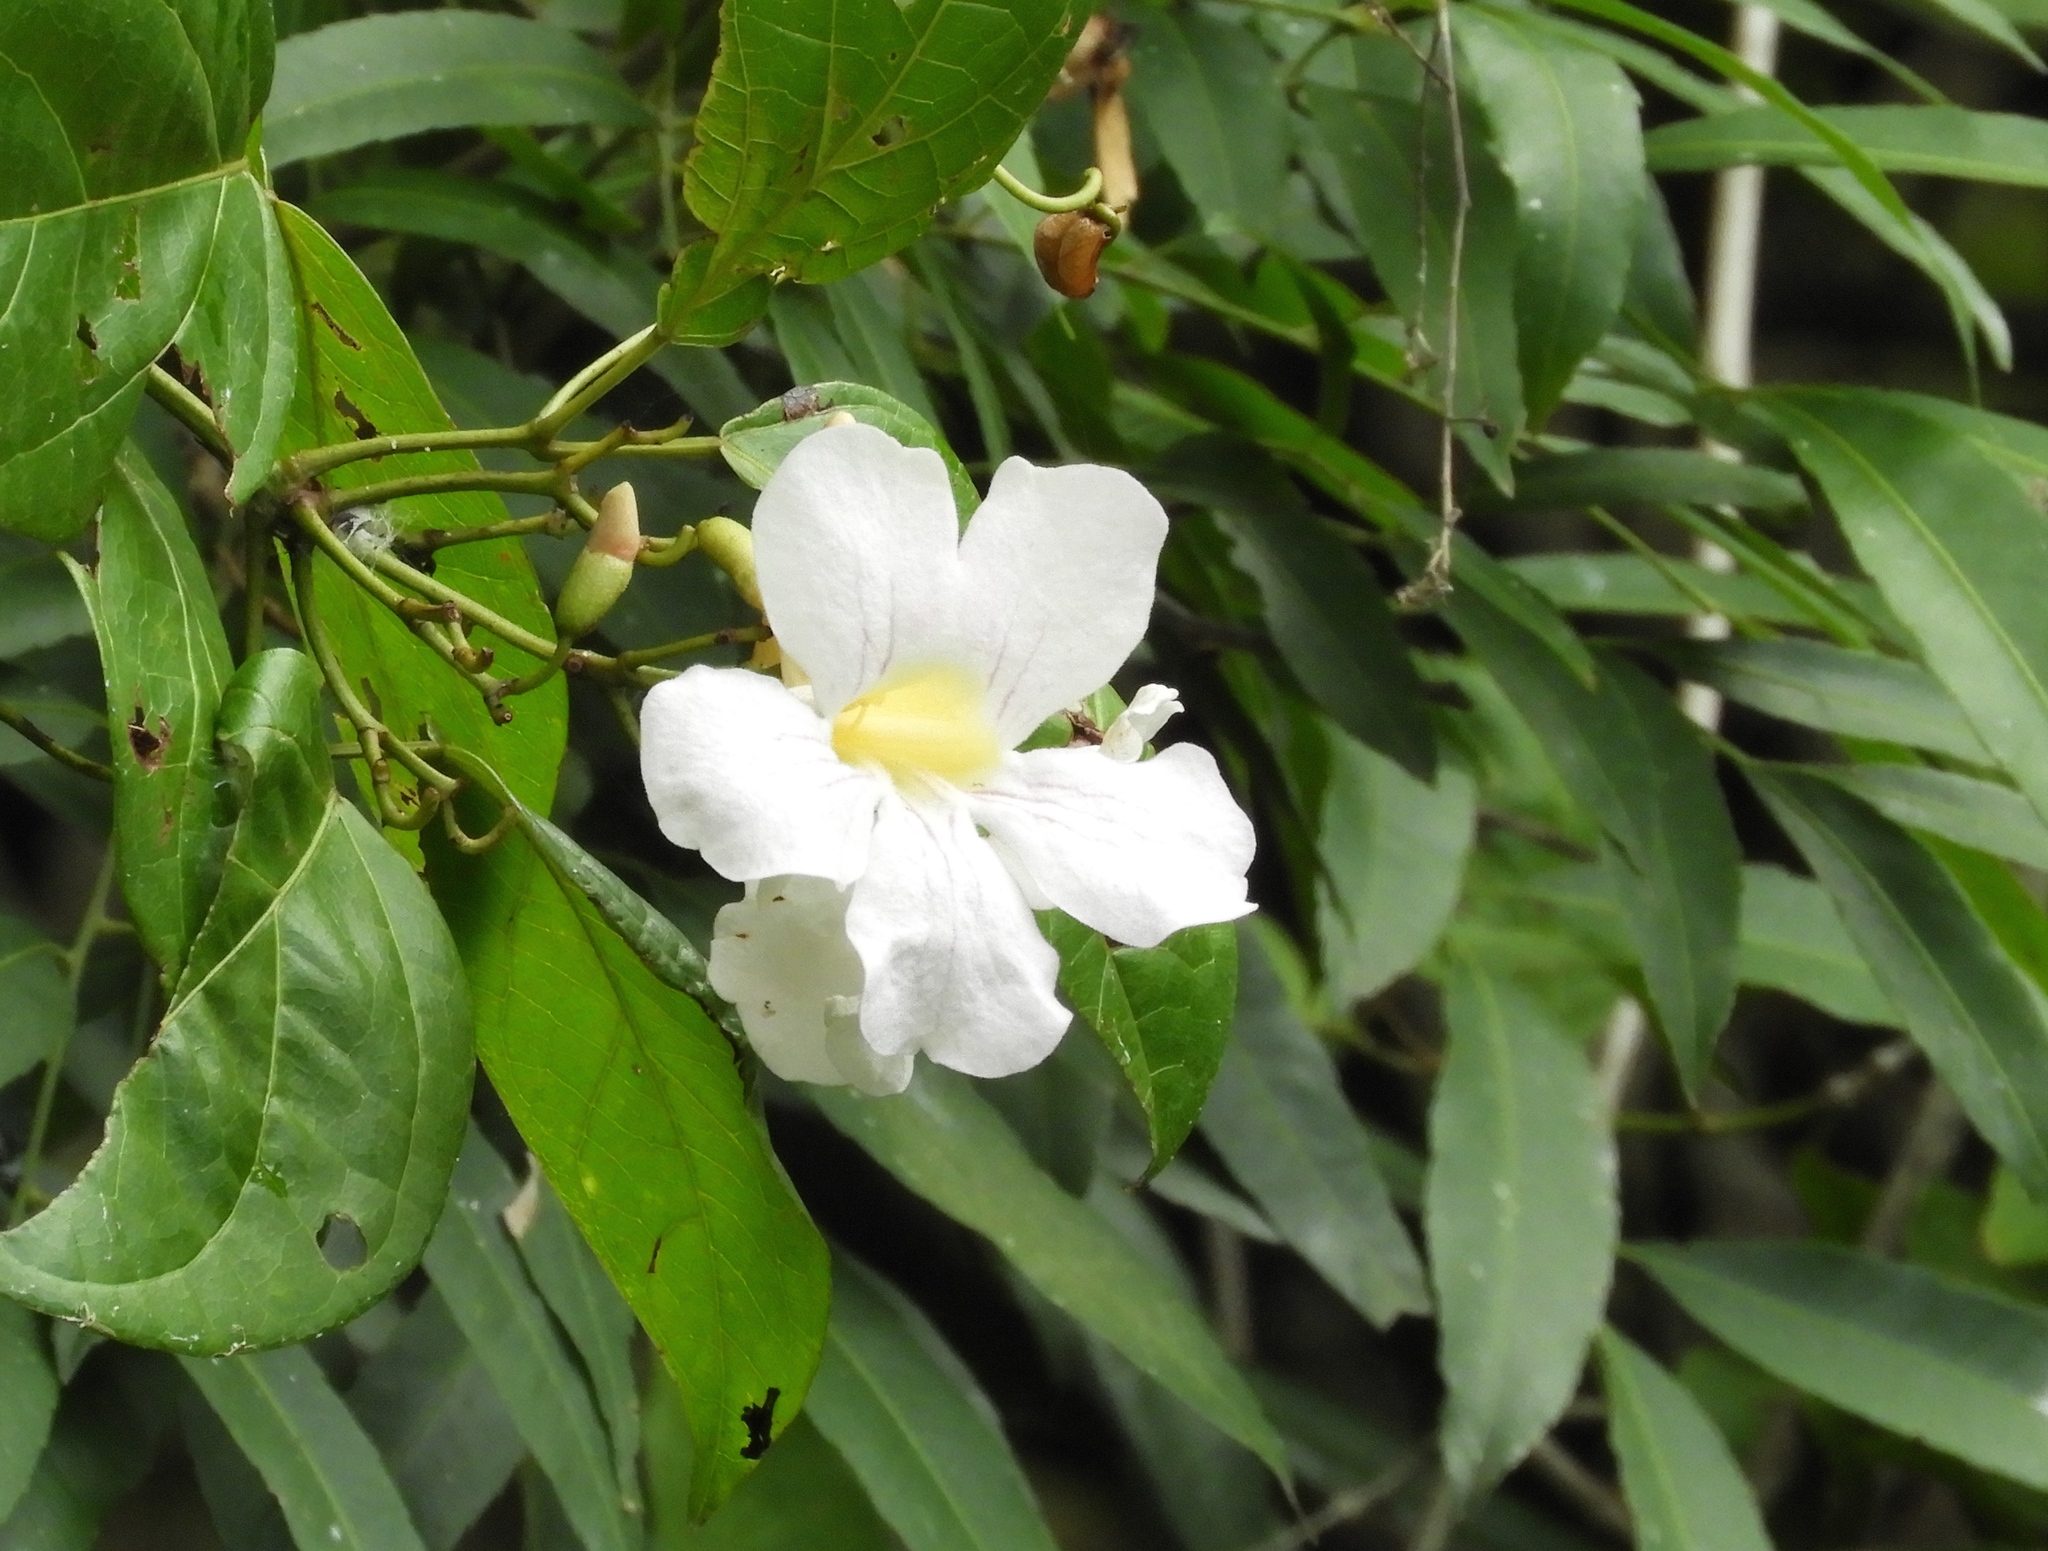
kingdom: Plantae
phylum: Tracheophyta
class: Magnoliopsida
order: Lamiales
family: Bignoniaceae
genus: Bignonia
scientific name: Bignonia potosina
